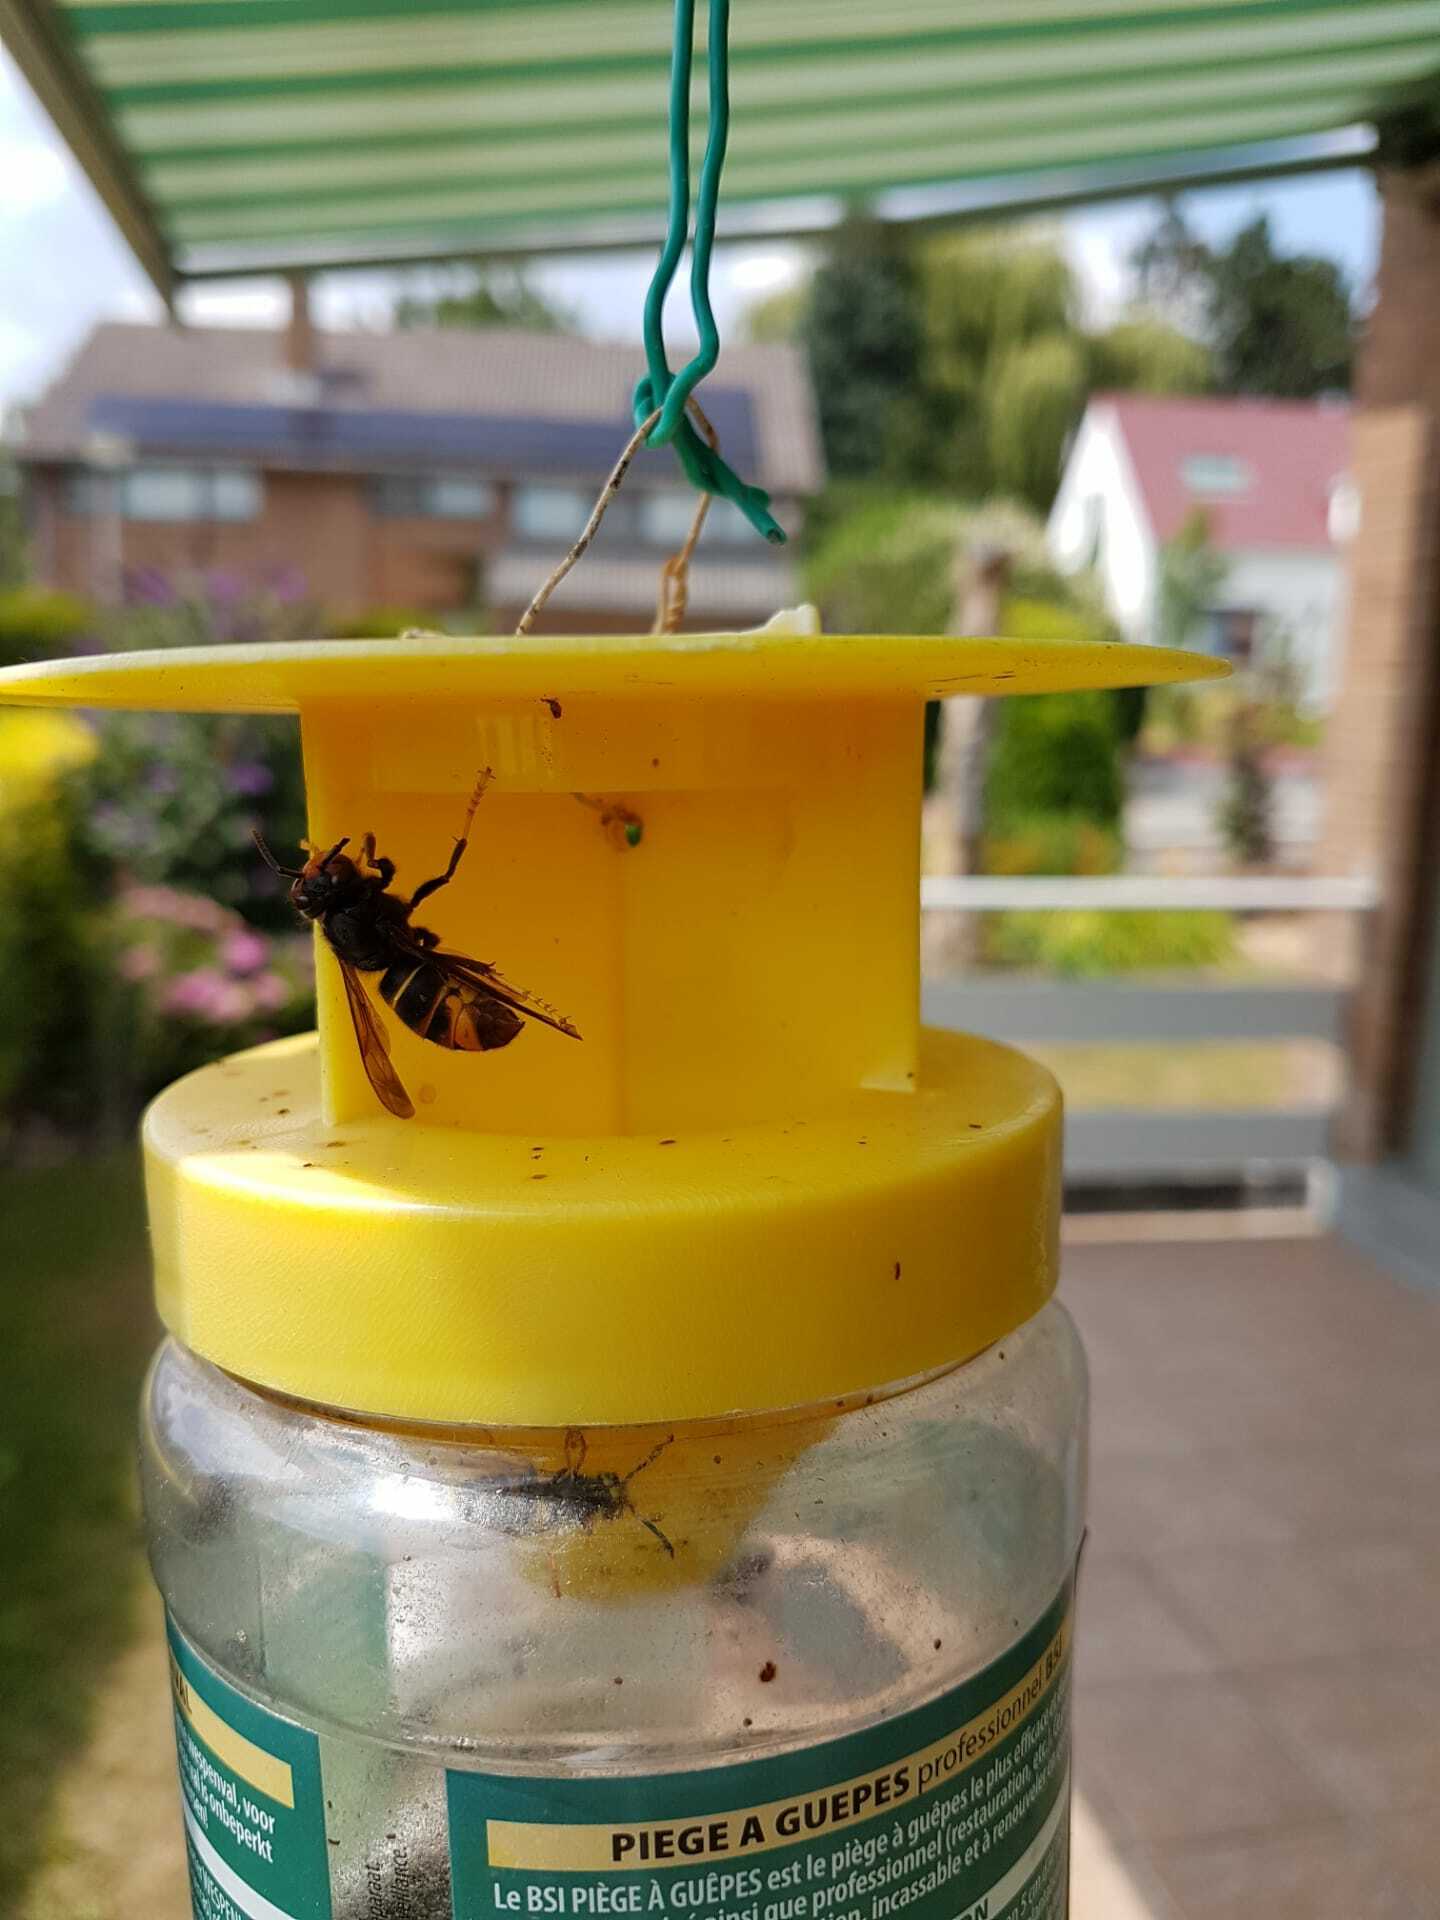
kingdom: Animalia
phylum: Arthropoda
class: Insecta
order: Hymenoptera
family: Vespidae
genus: Vespa
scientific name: Vespa velutina
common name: Asian hornet
